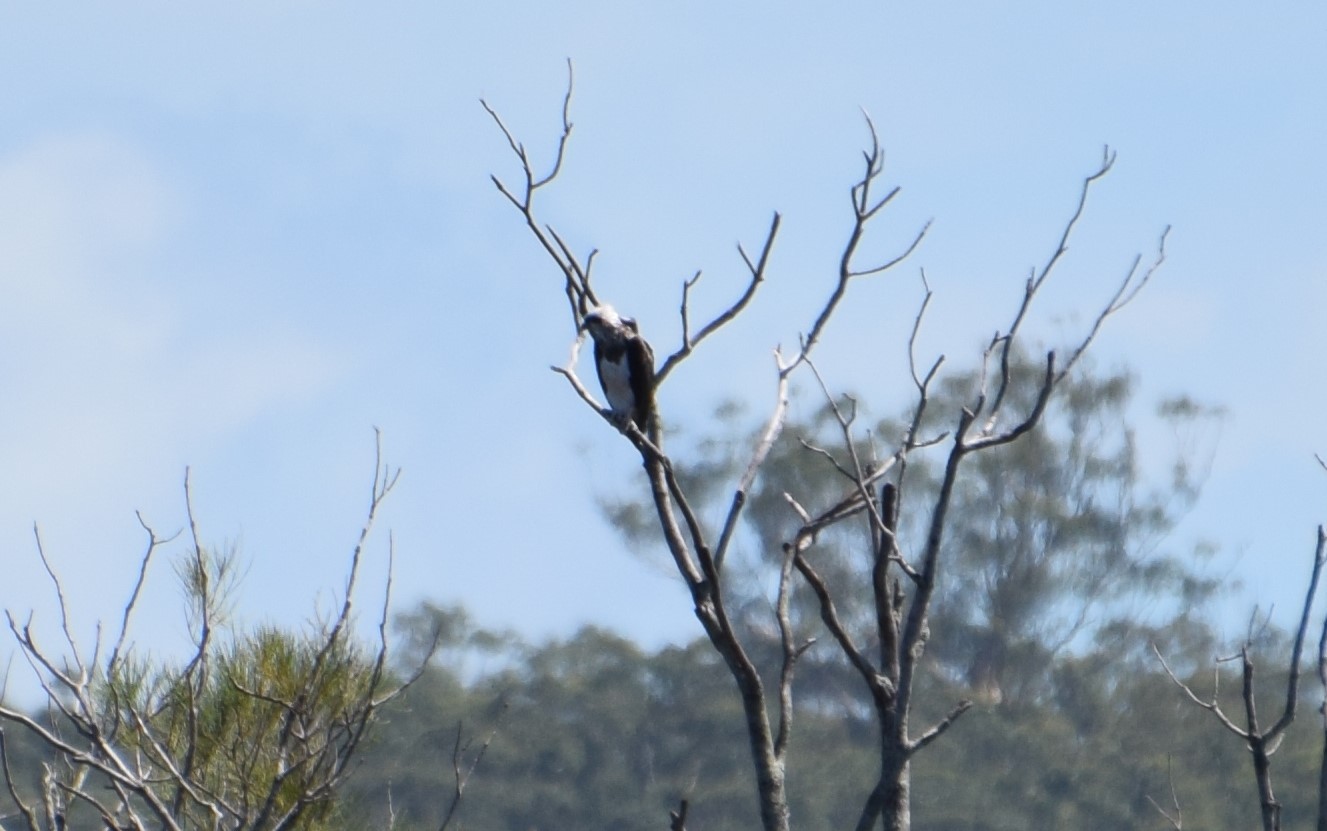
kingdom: Animalia
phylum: Chordata
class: Aves
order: Accipitriformes
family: Pandionidae
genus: Pandion
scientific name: Pandion haliaetus
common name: Osprey
